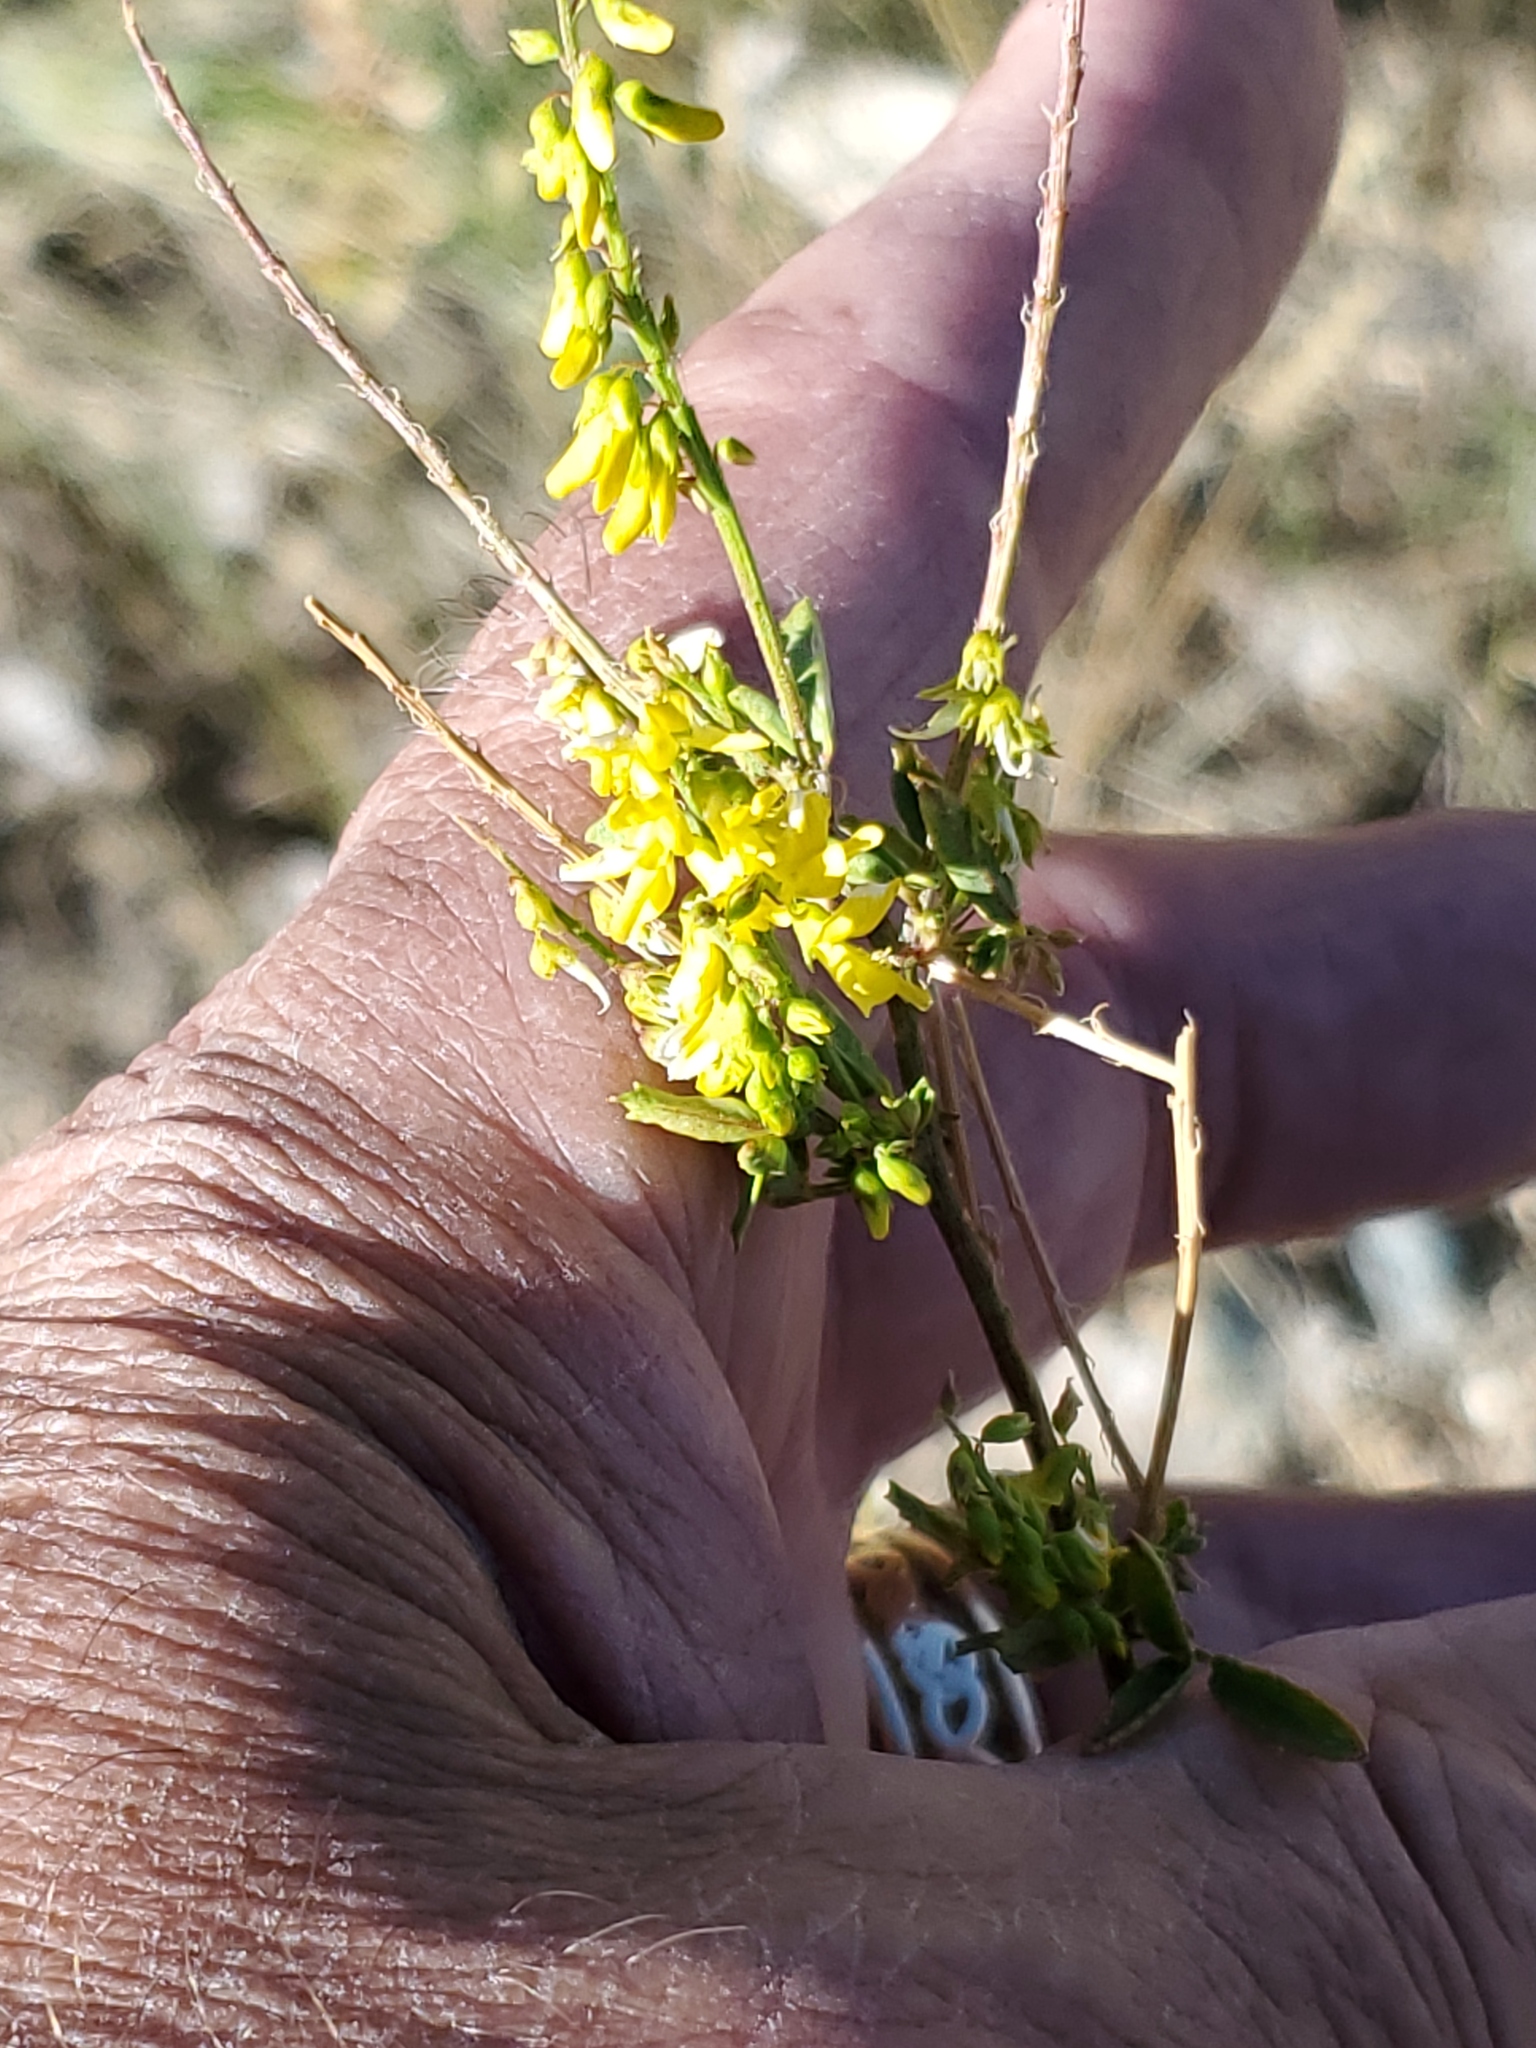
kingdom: Plantae
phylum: Tracheophyta
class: Magnoliopsida
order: Fabales
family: Fabaceae
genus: Melilotus
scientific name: Melilotus officinalis
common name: Sweetclover
